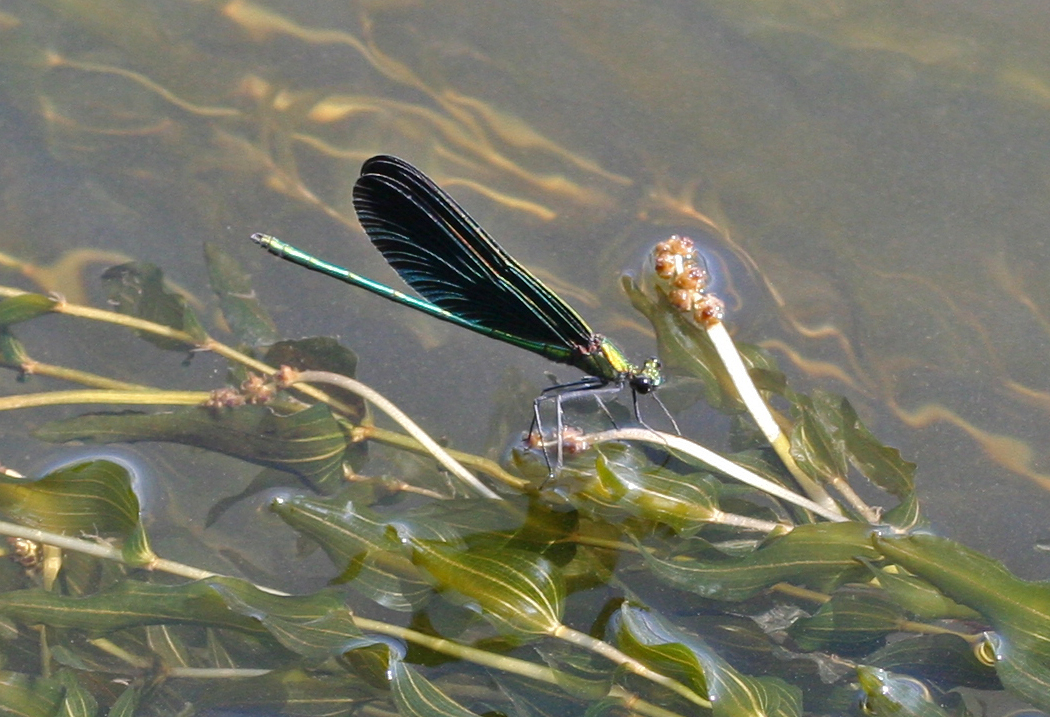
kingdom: Animalia
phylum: Arthropoda
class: Insecta
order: Odonata
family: Calopterygidae
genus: Calopteryx
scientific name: Calopteryx japonica
